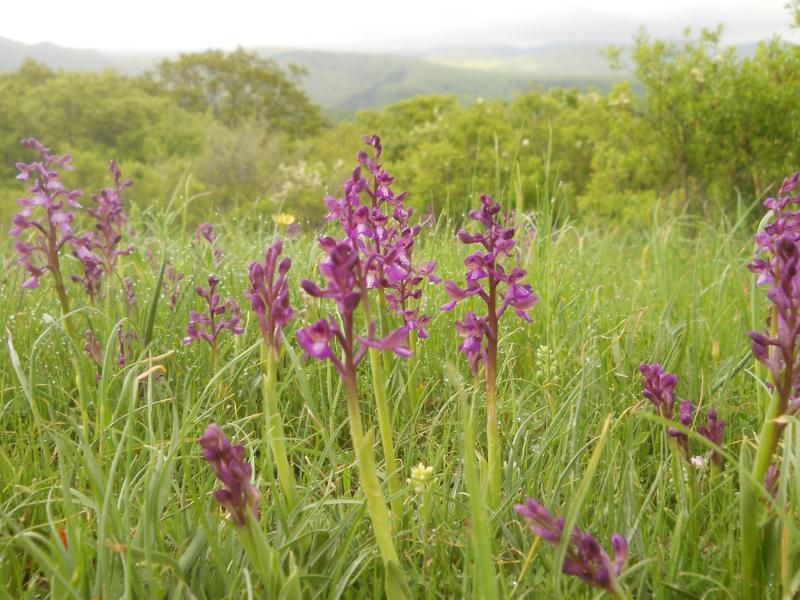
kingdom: Plantae
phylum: Tracheophyta
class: Liliopsida
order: Asparagales
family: Orchidaceae
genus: Anacamptis
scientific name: Anacamptis morio
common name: Green-winged orchid
